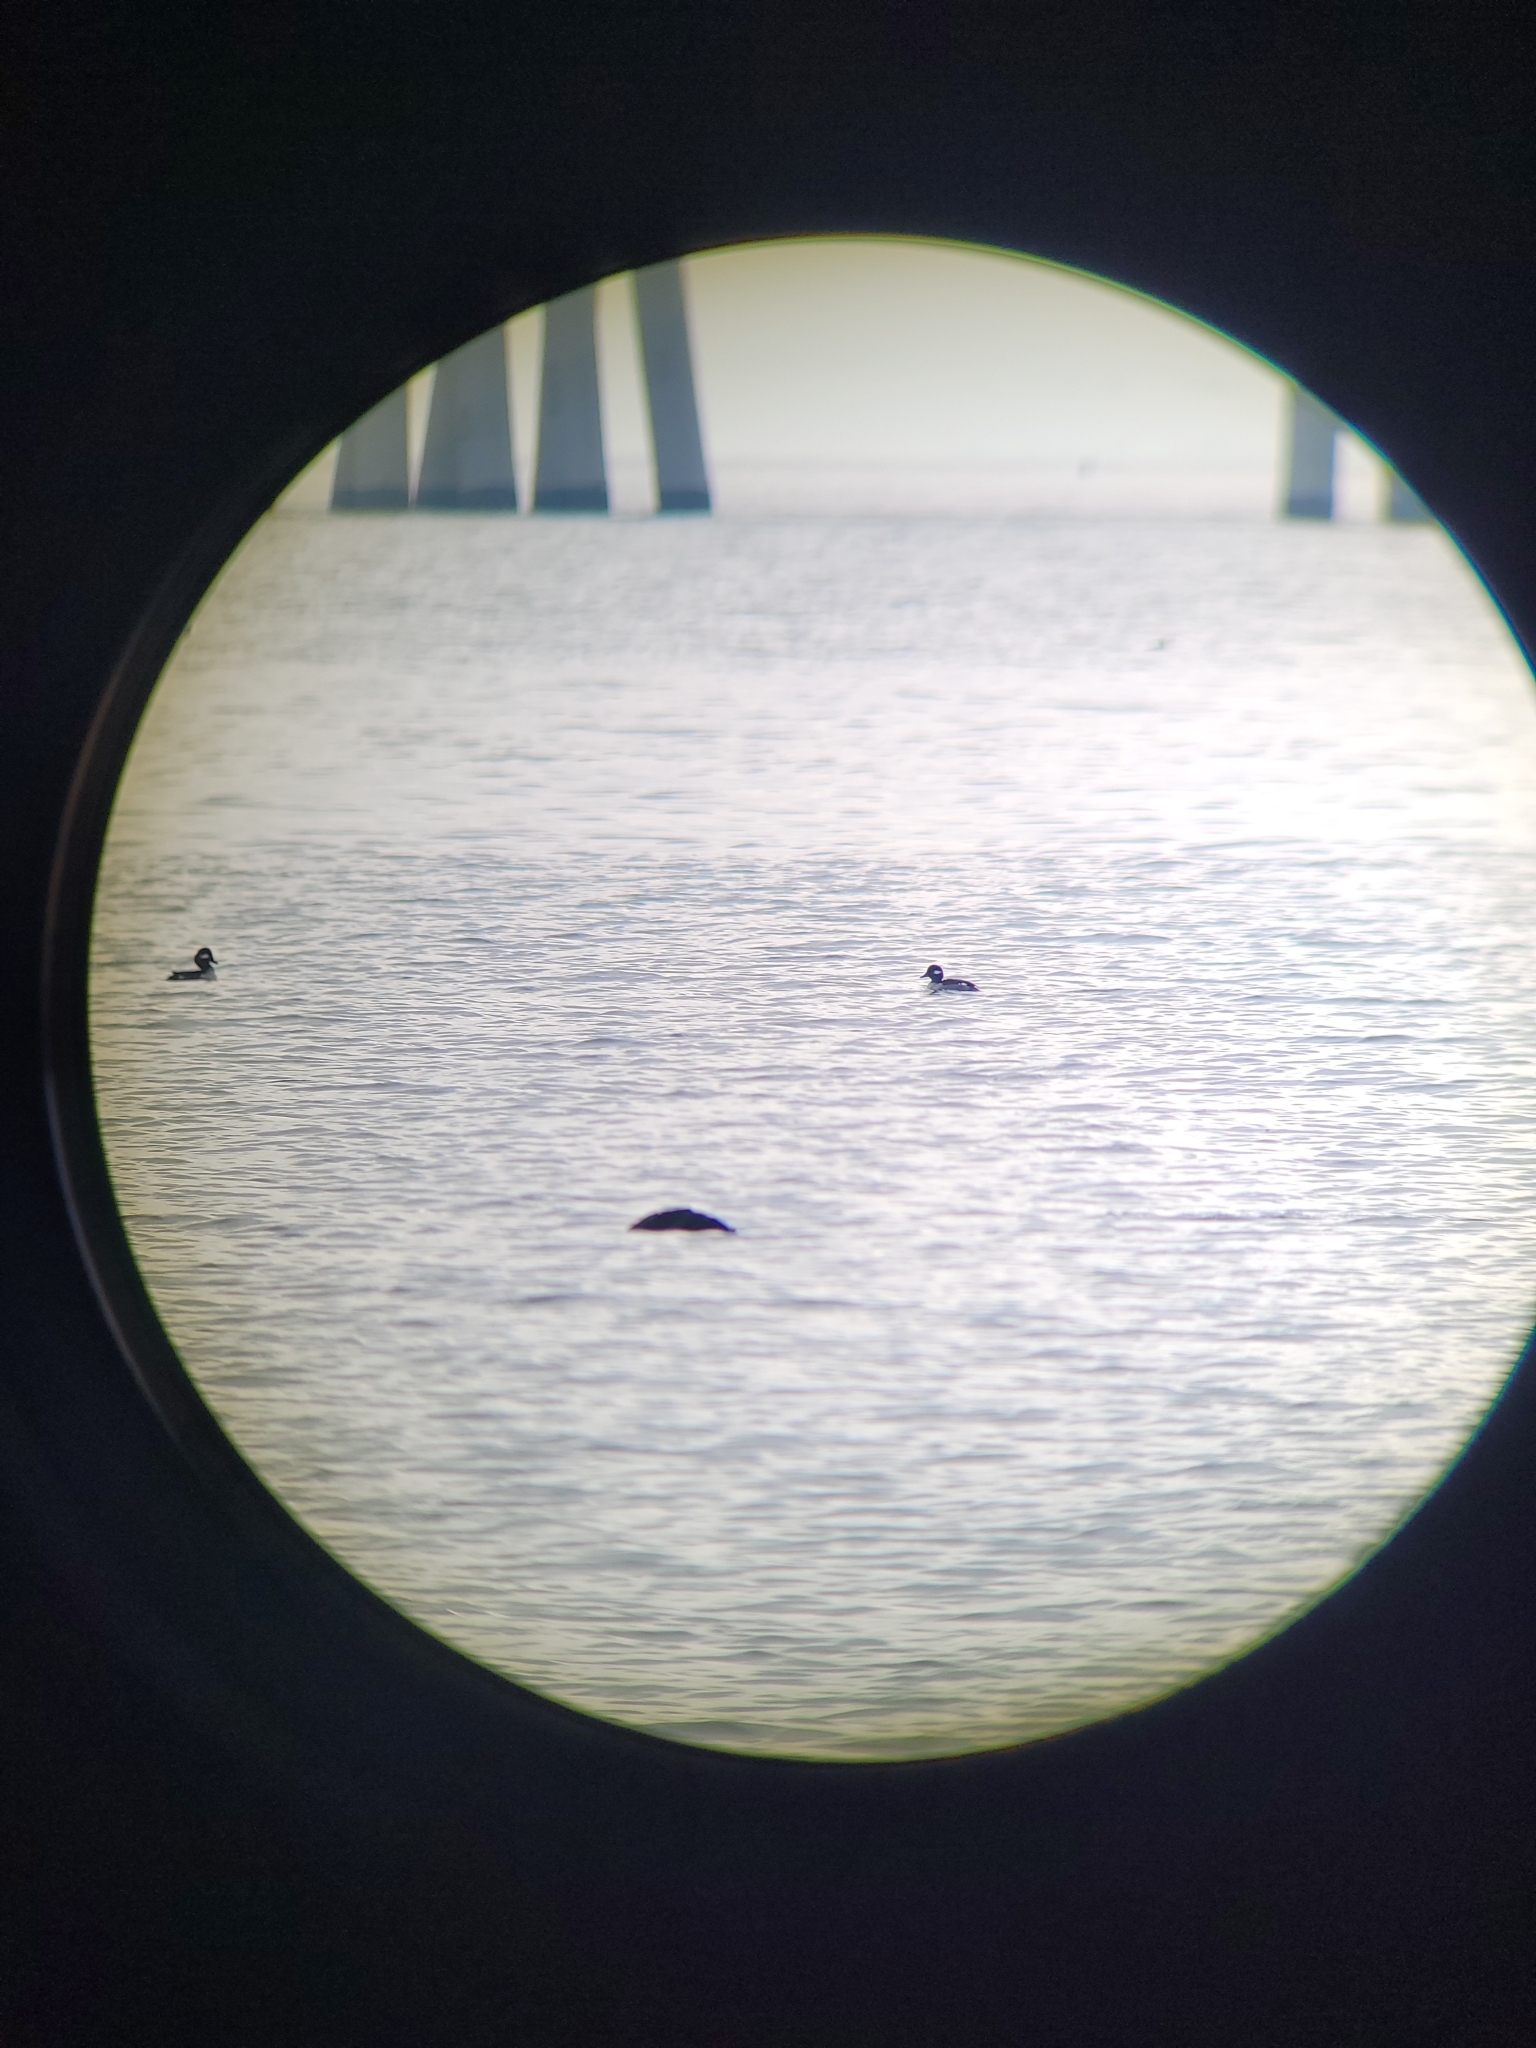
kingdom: Animalia
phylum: Chordata
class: Aves
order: Anseriformes
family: Anatidae
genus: Bucephala
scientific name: Bucephala albeola
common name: Bufflehead
